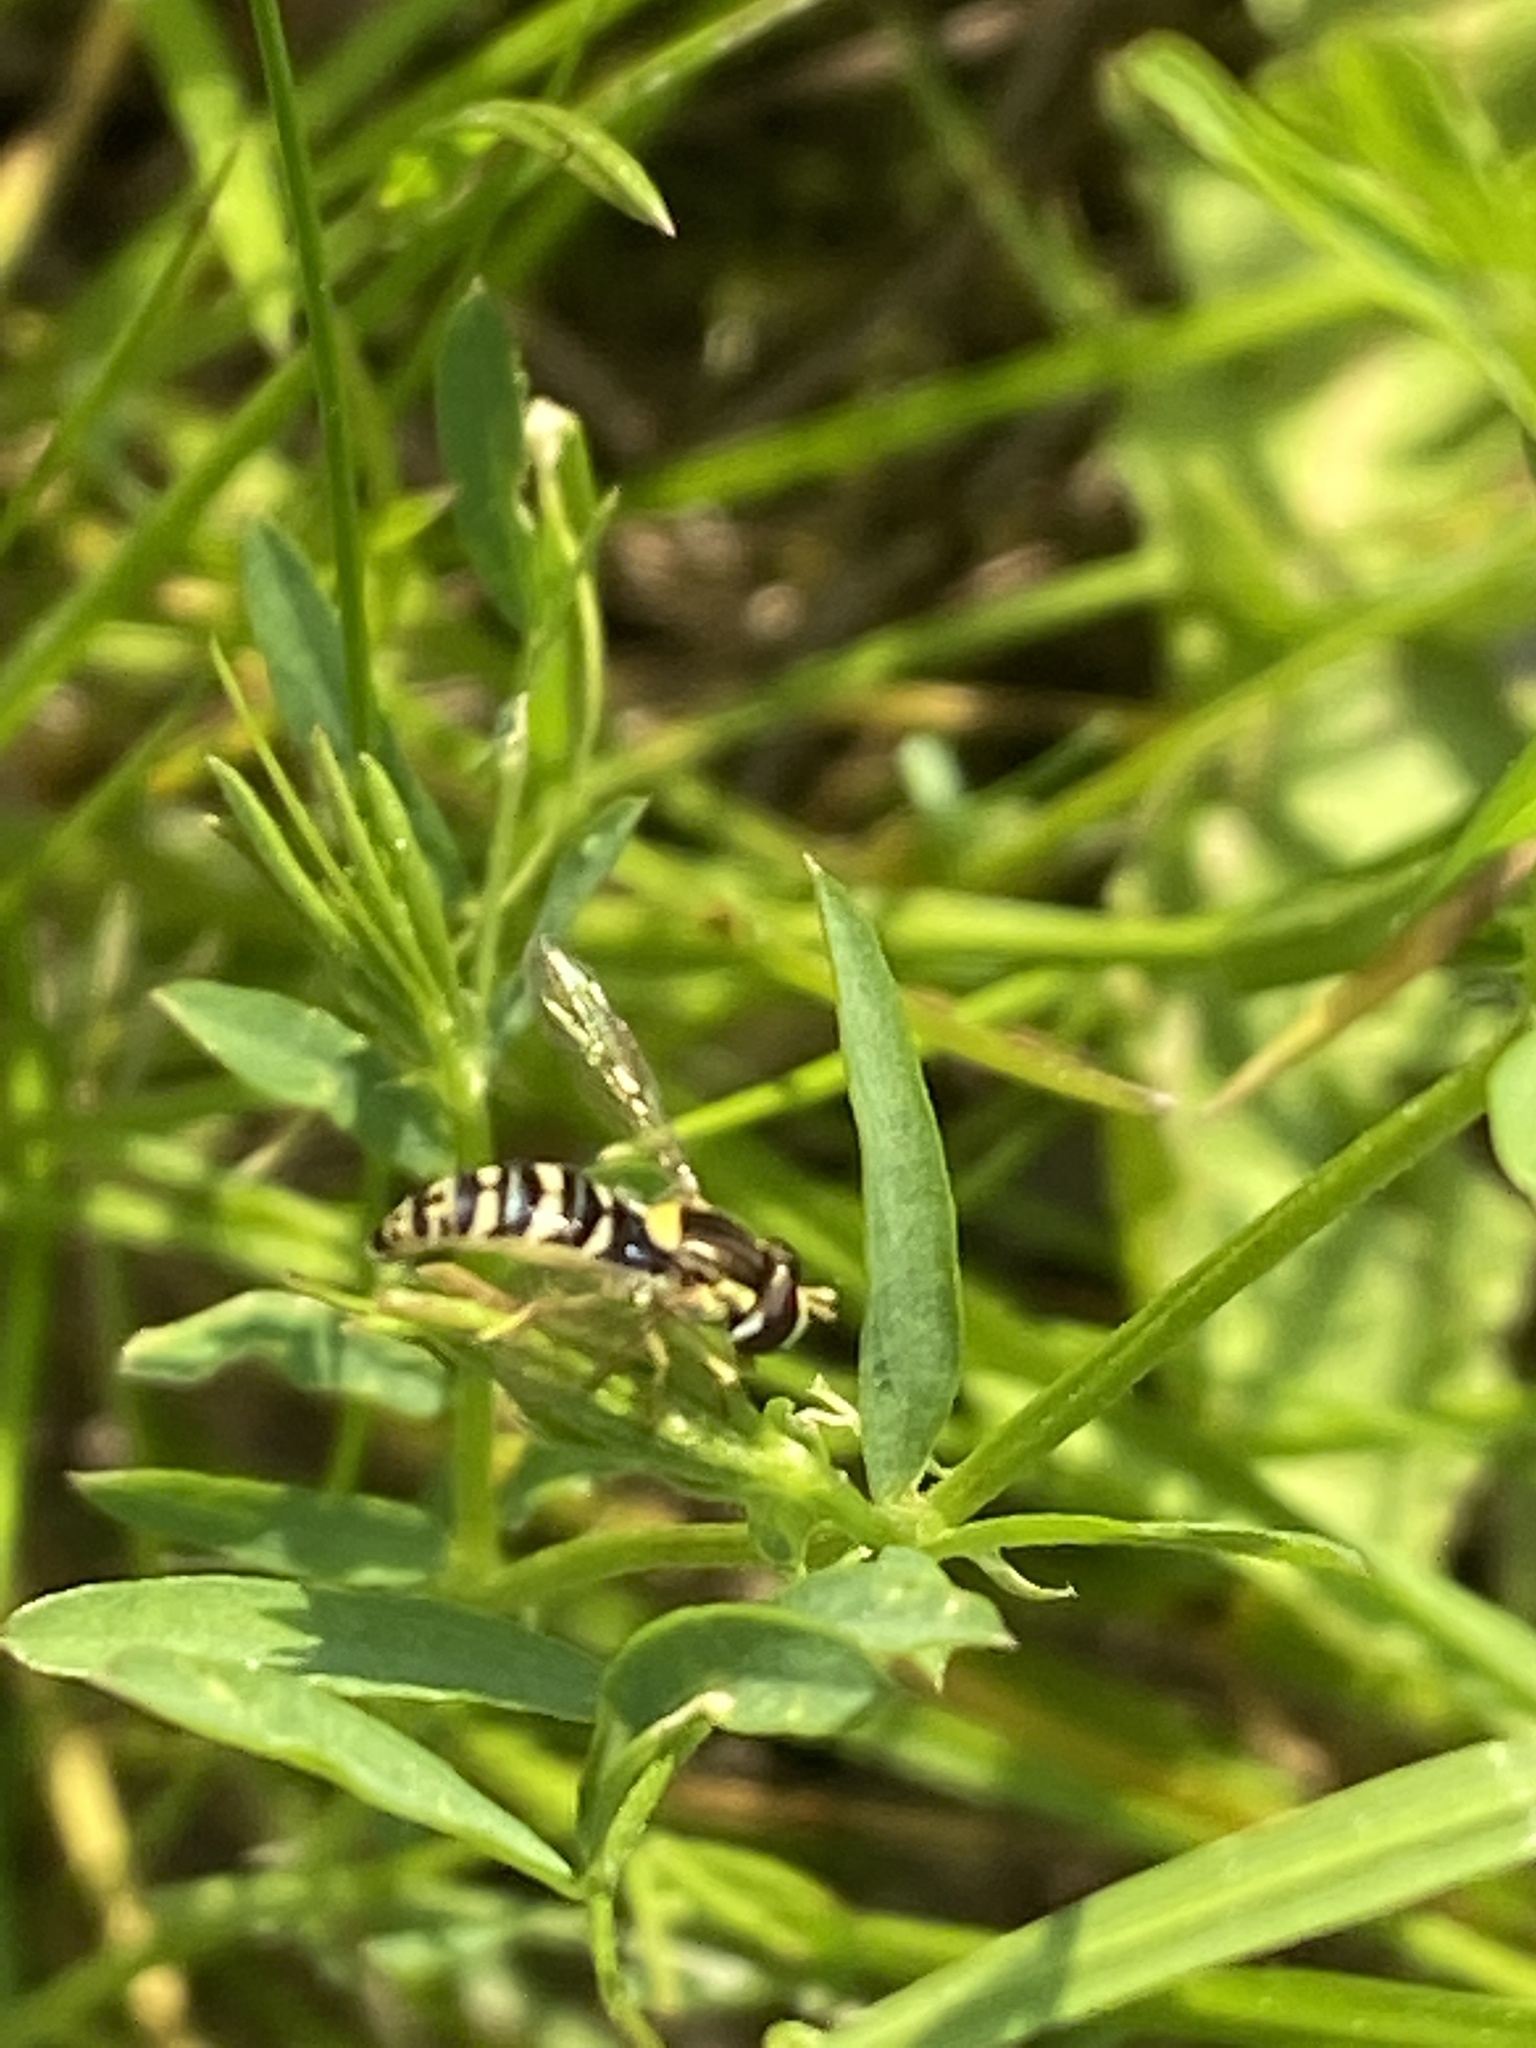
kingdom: Animalia
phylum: Arthropoda
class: Insecta
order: Diptera
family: Syrphidae
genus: Sphaerophoria
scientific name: Sphaerophoria
